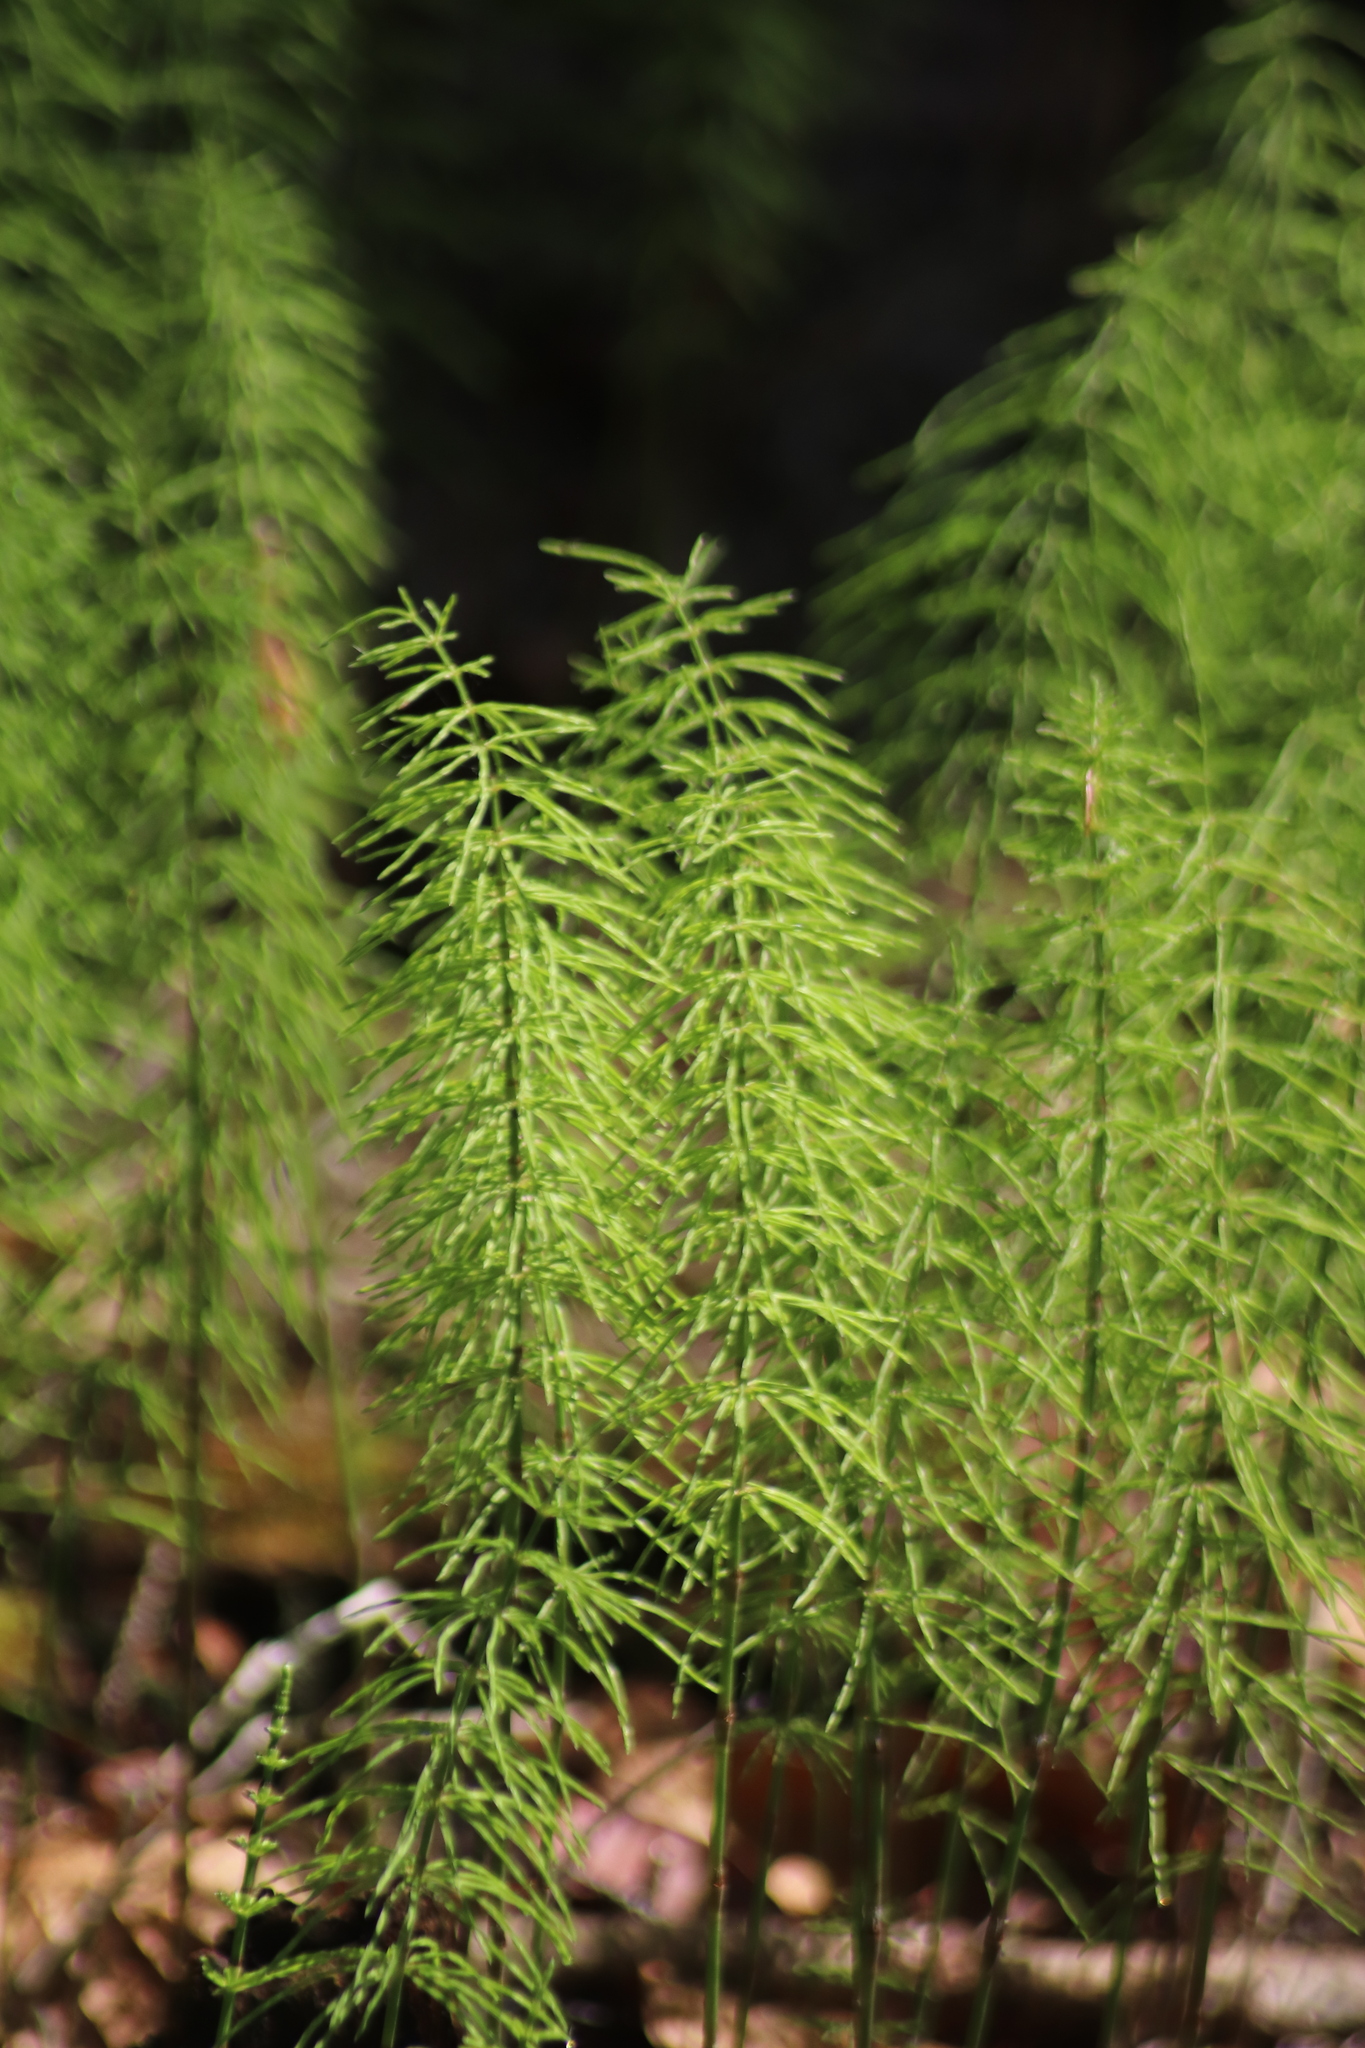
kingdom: Plantae
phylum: Tracheophyta
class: Polypodiopsida
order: Equisetales
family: Equisetaceae
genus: Equisetum
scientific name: Equisetum pratense
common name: Meadow horsetail
